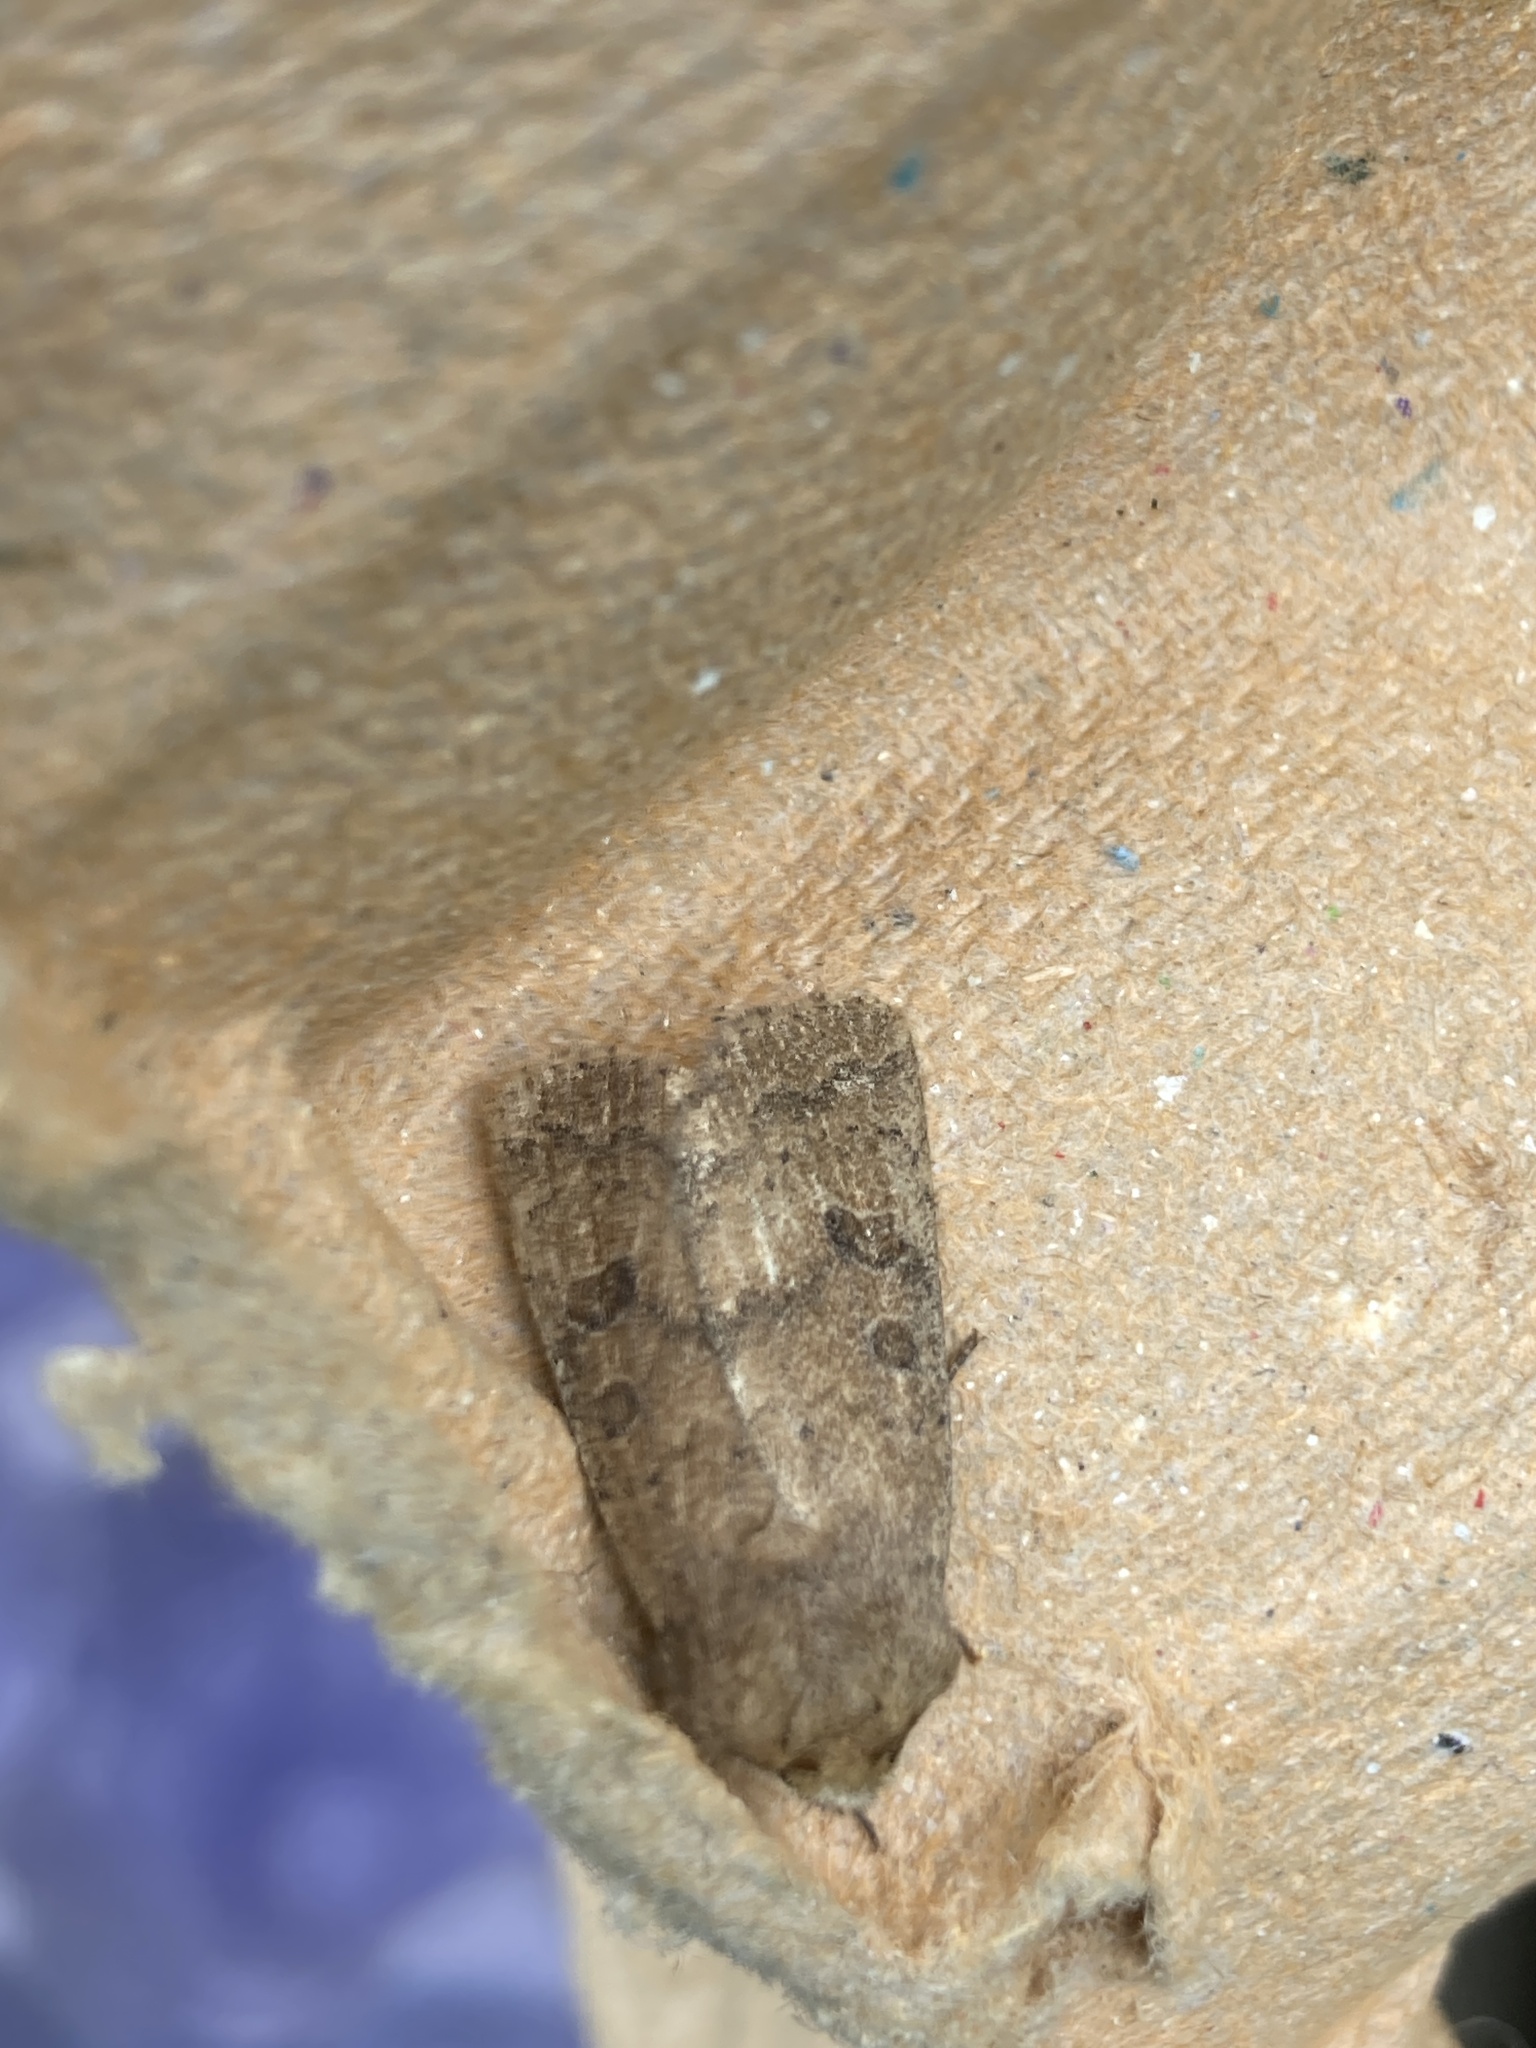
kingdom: Animalia
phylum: Arthropoda
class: Insecta
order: Lepidoptera
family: Noctuidae
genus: Hoplodrina
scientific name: Hoplodrina octogenaria
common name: Uncertain
